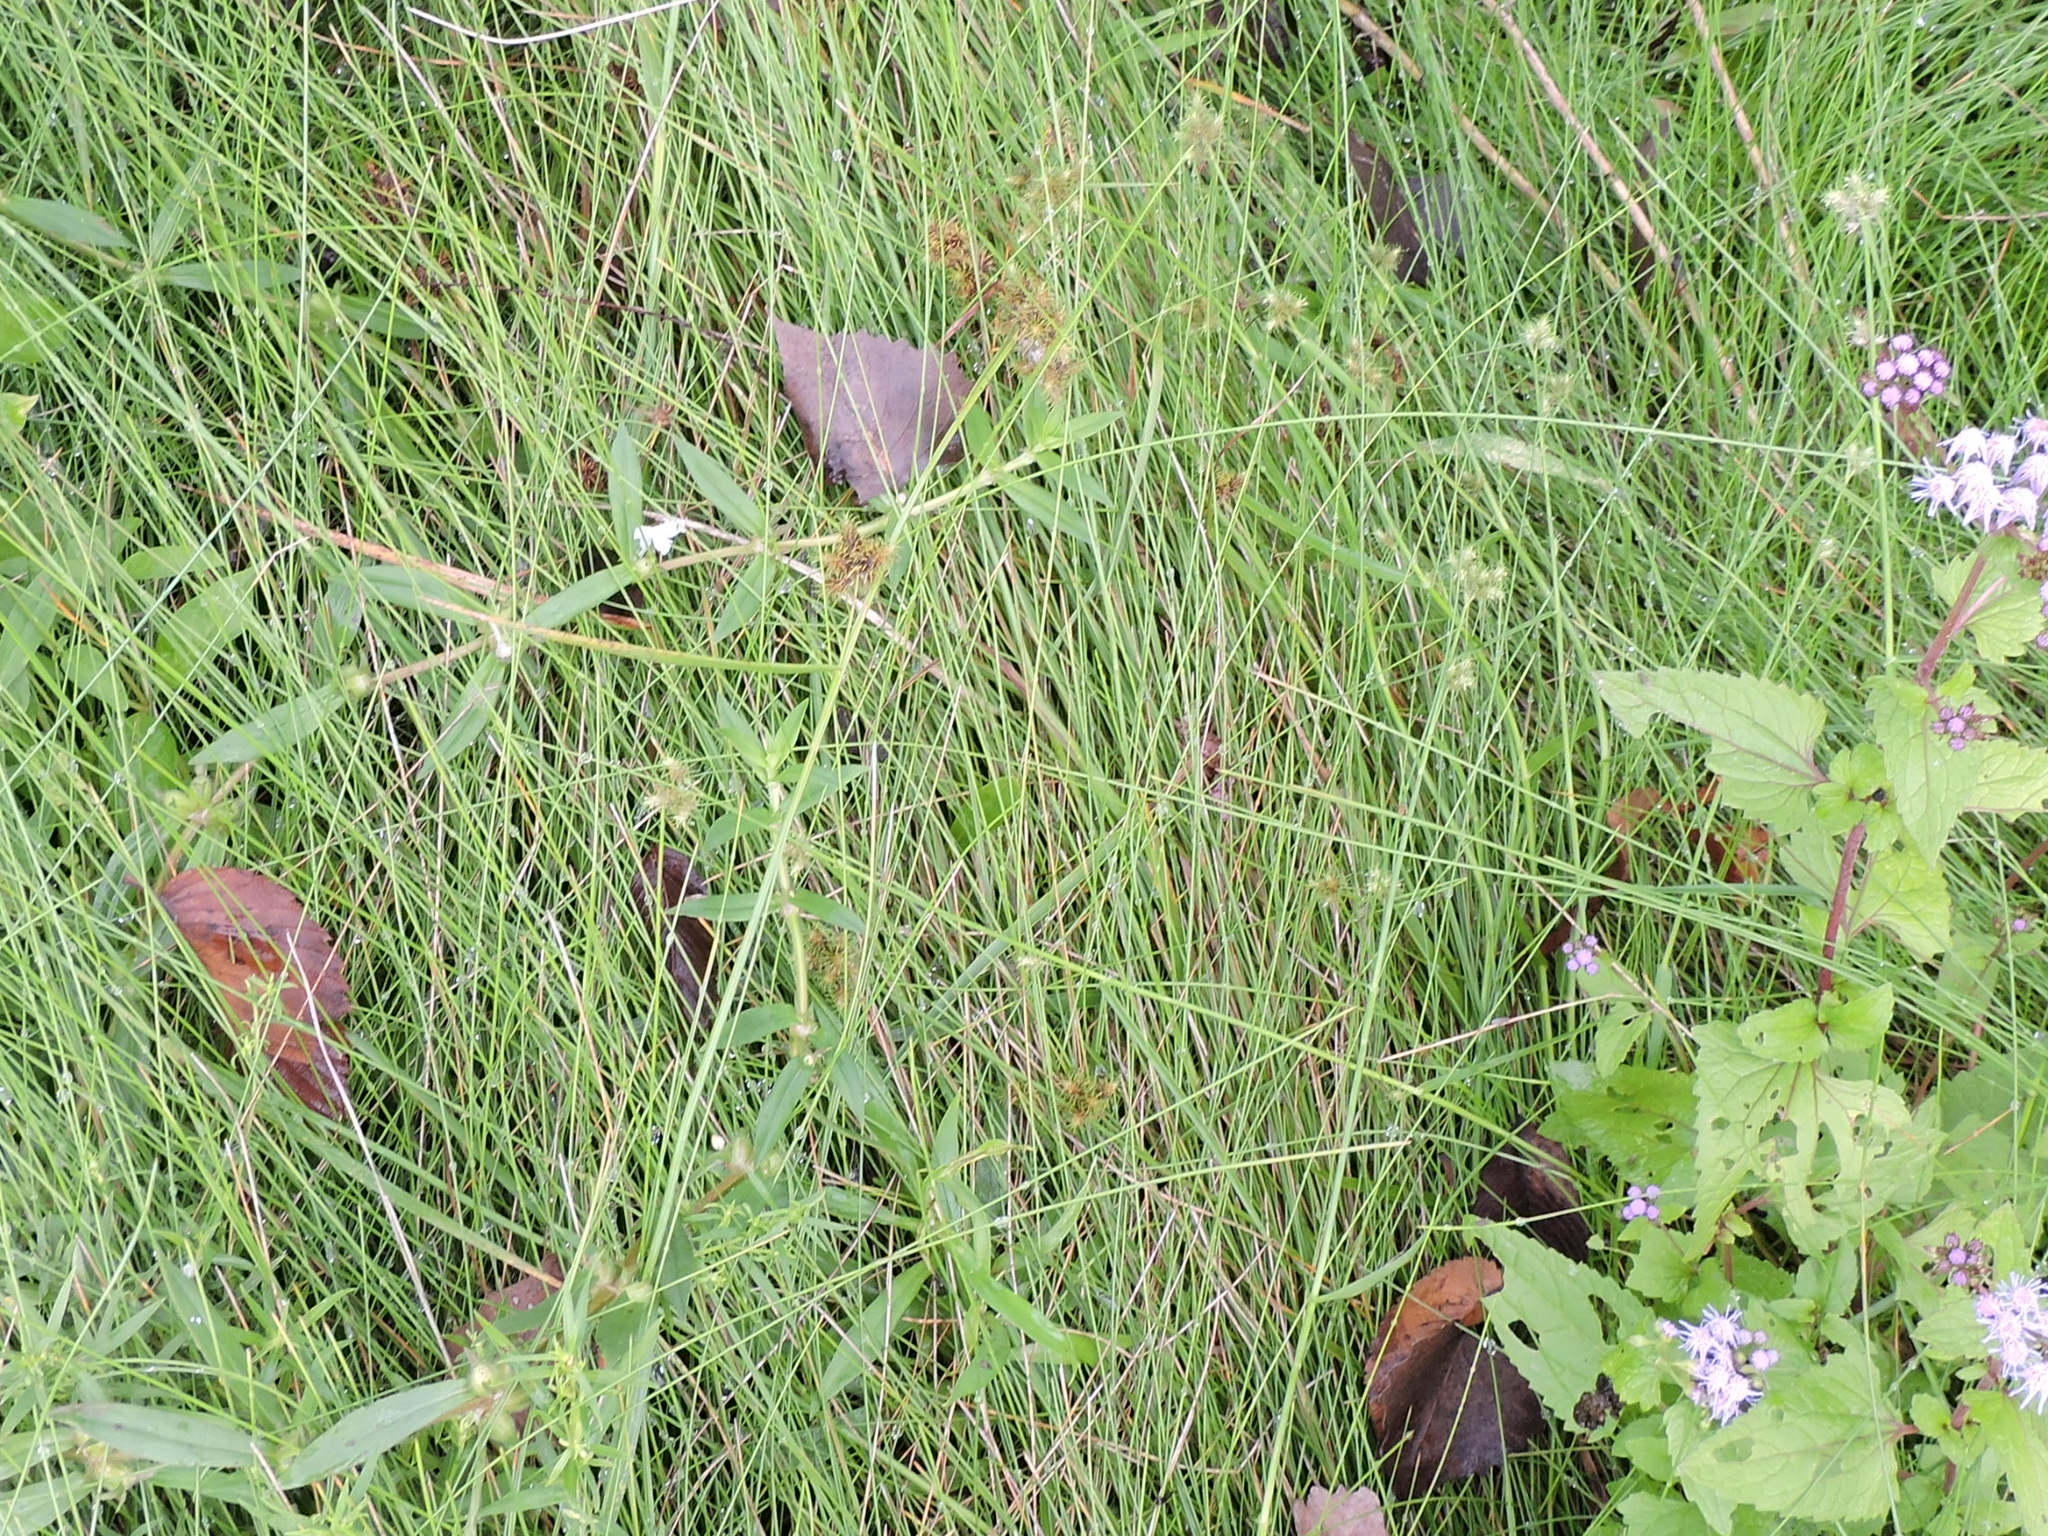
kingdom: Plantae
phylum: Tracheophyta
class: Liliopsida
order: Poales
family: Cyperaceae
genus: Fuirena
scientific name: Fuirena simplex
